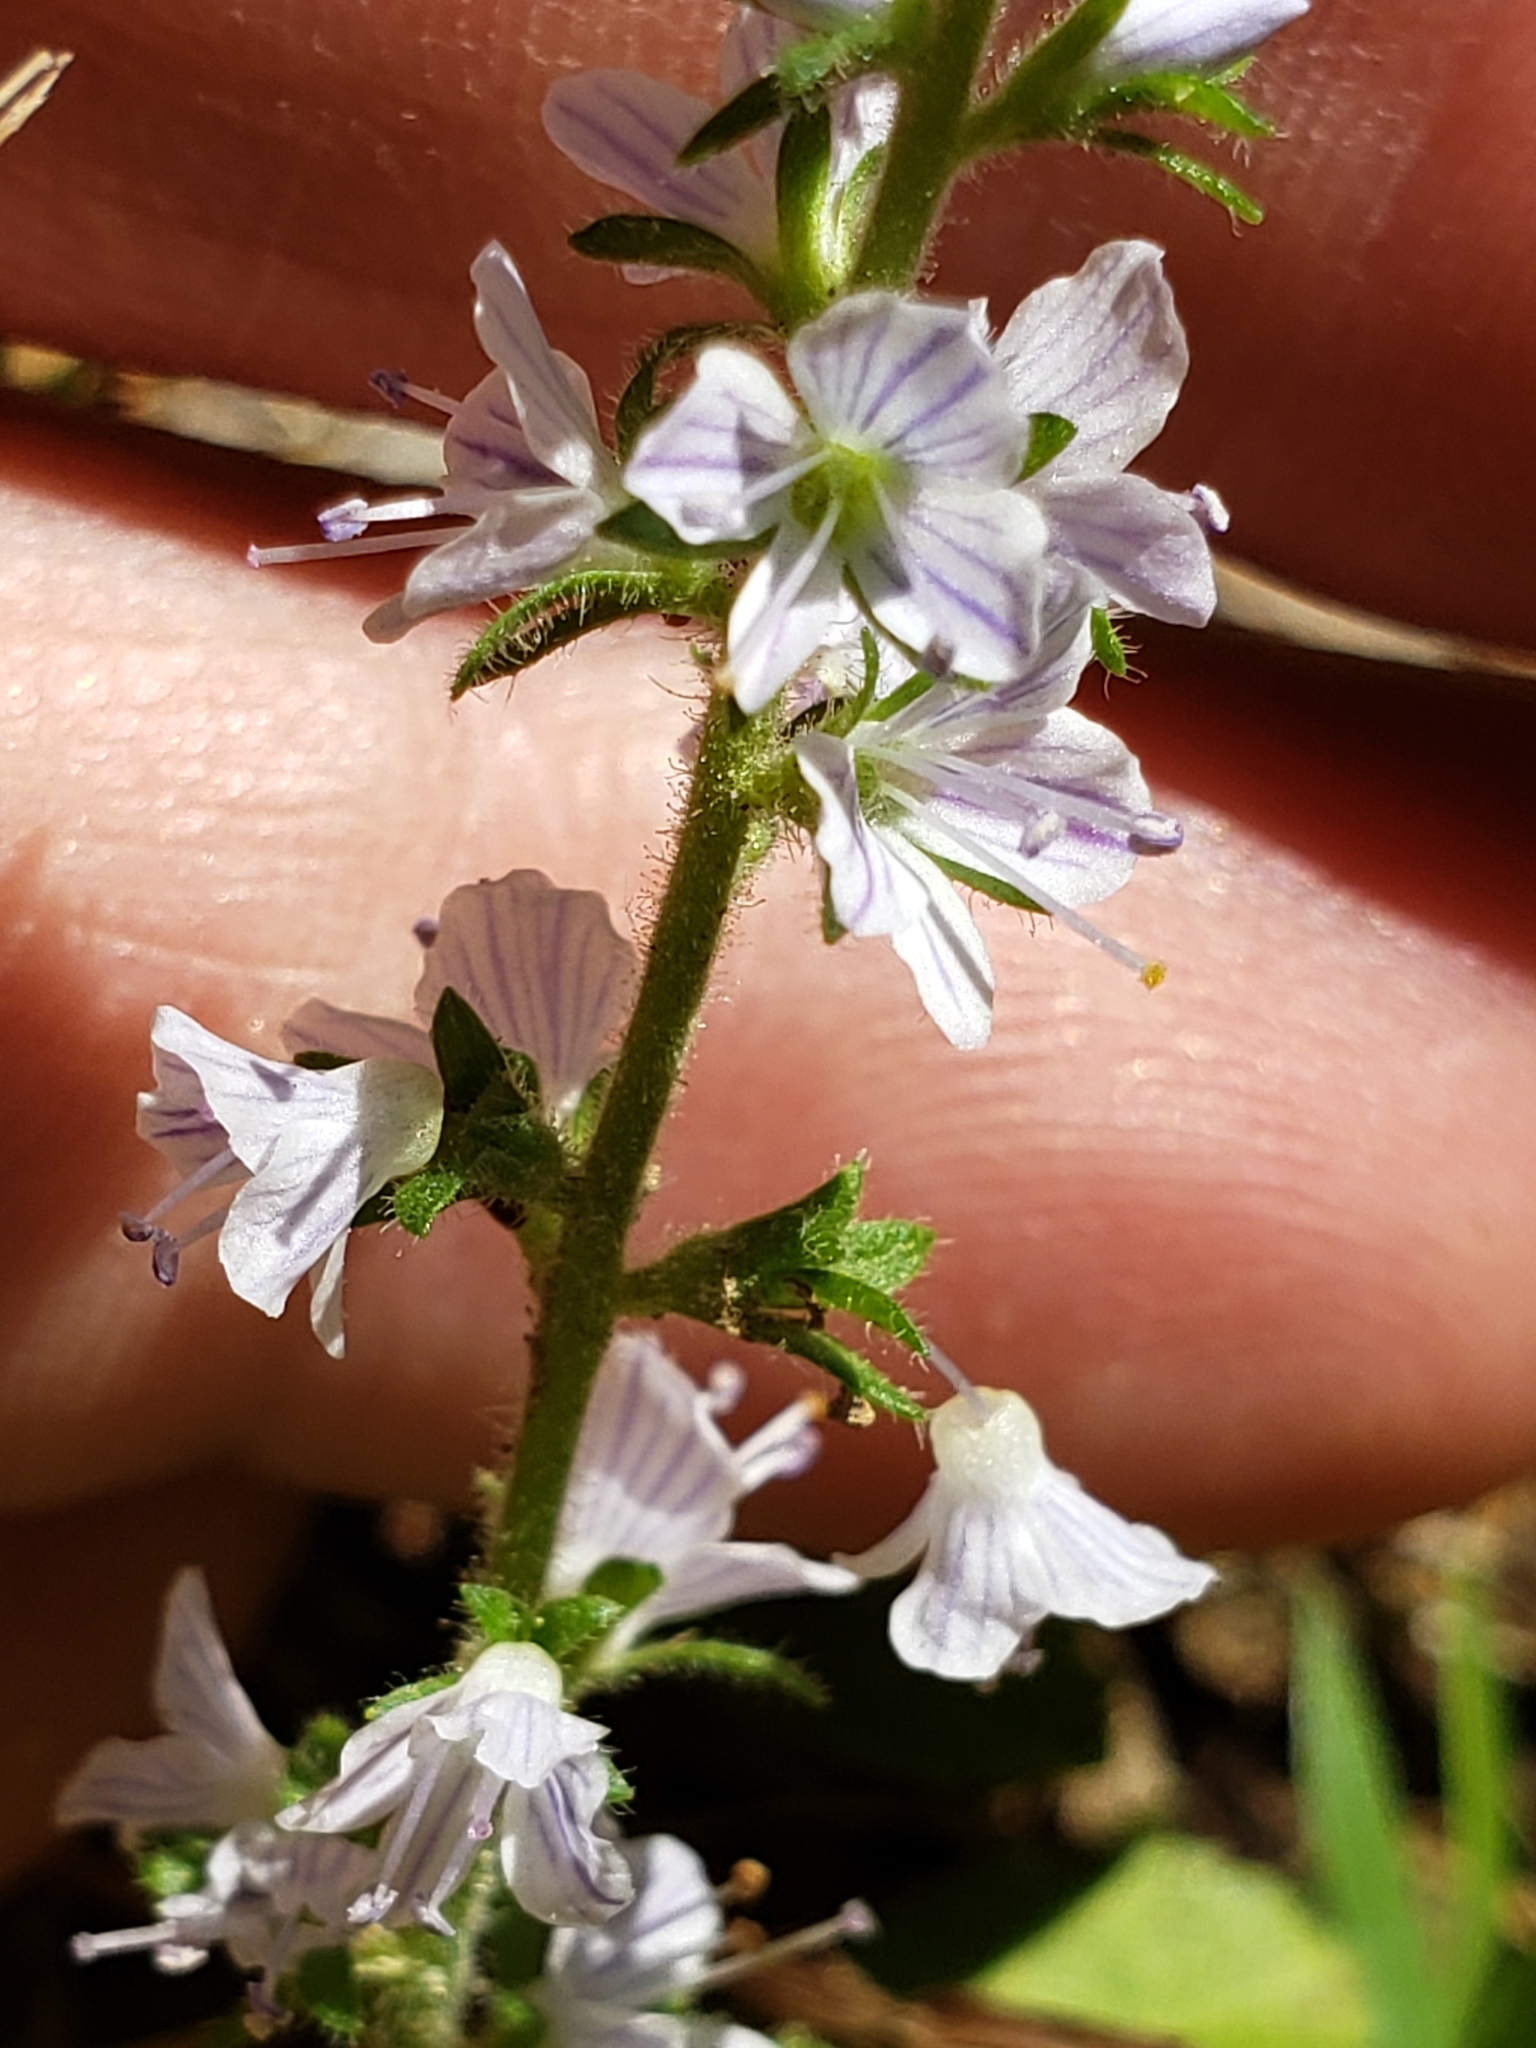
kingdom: Plantae
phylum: Tracheophyta
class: Magnoliopsida
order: Lamiales
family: Plantaginaceae
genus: Veronica
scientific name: Veronica officinalis
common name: Common speedwell
